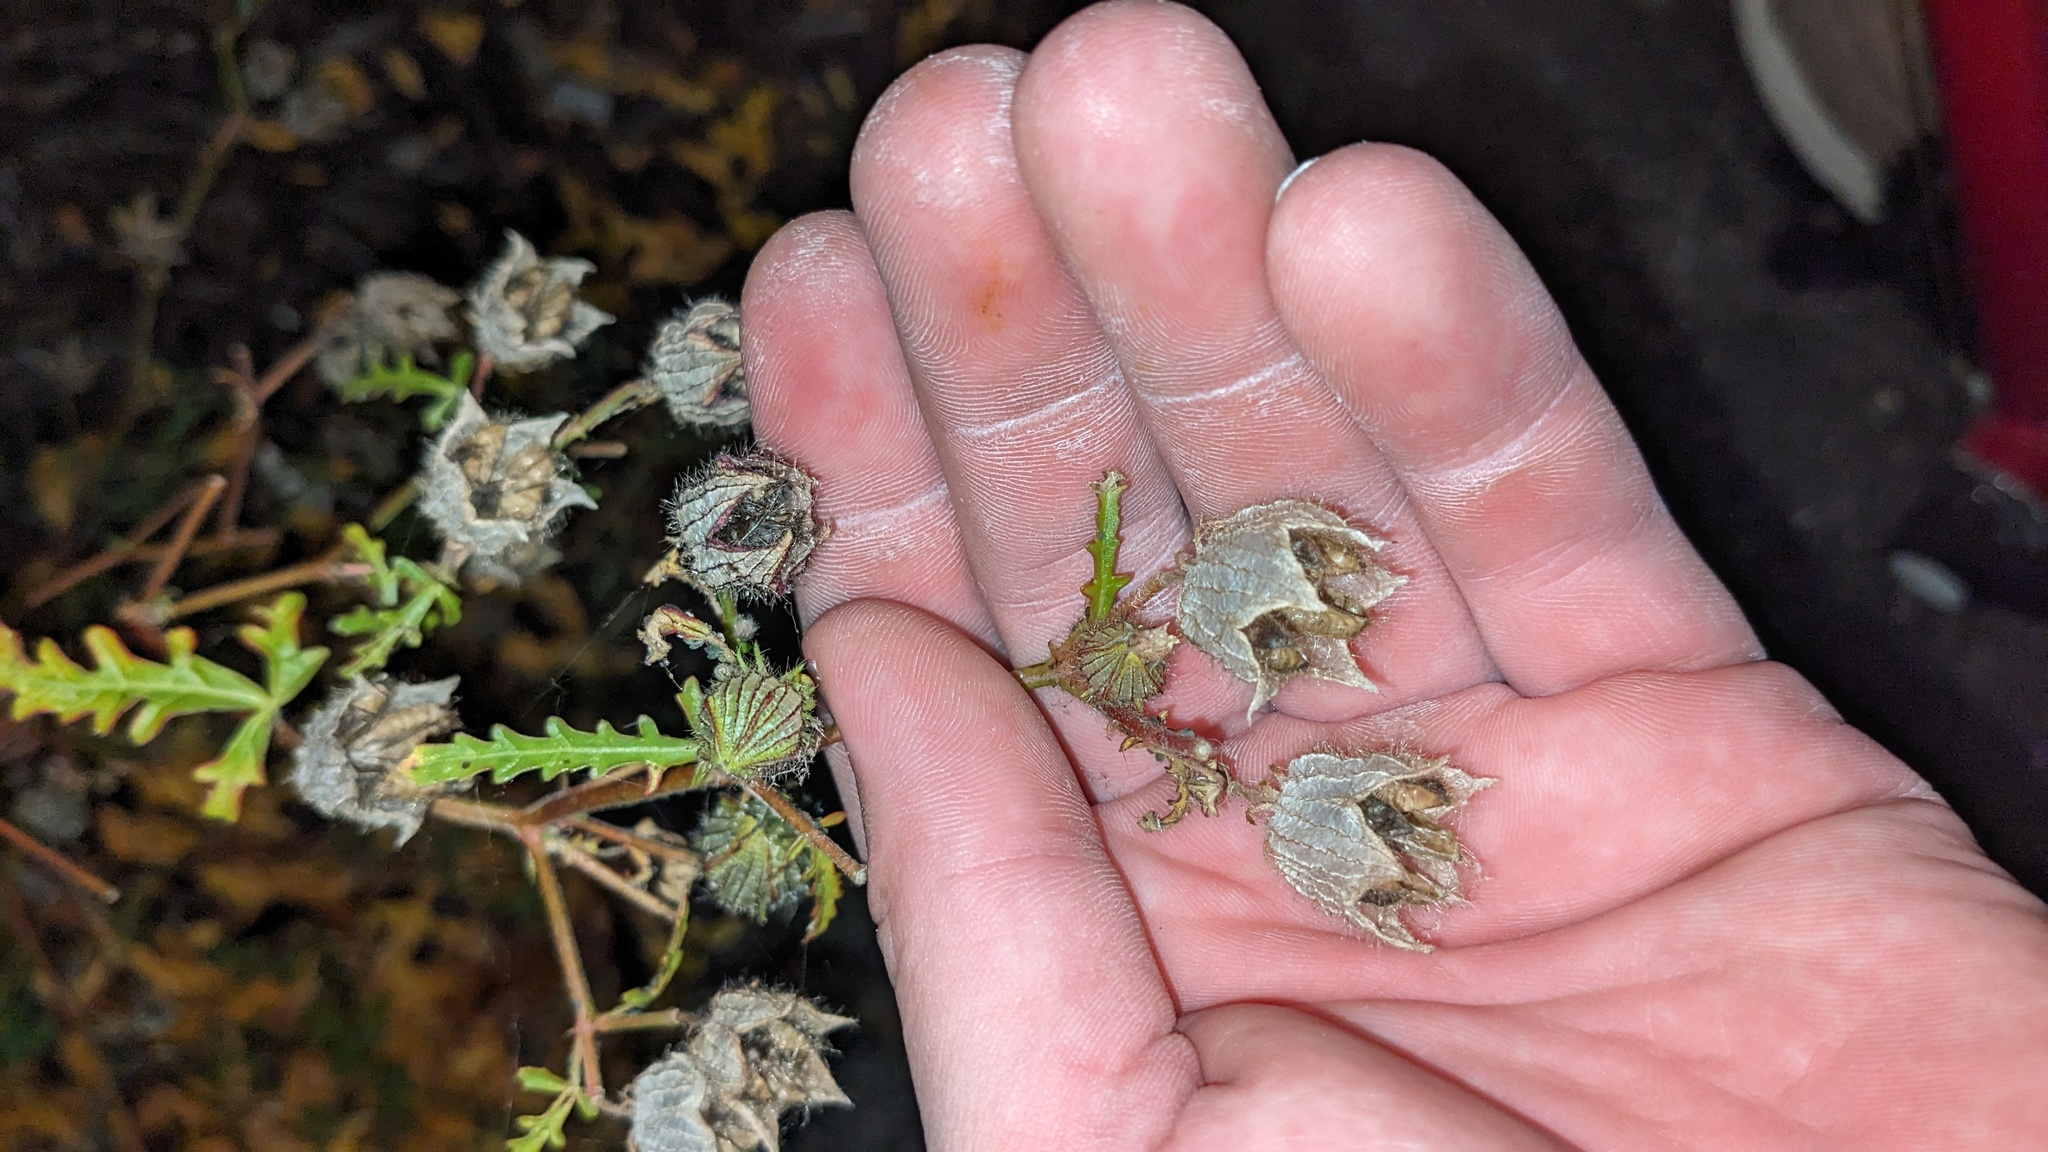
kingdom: Plantae
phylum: Tracheophyta
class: Magnoliopsida
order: Malvales
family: Malvaceae
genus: Hibiscus
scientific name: Hibiscus trionum
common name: Bladder ketmia
